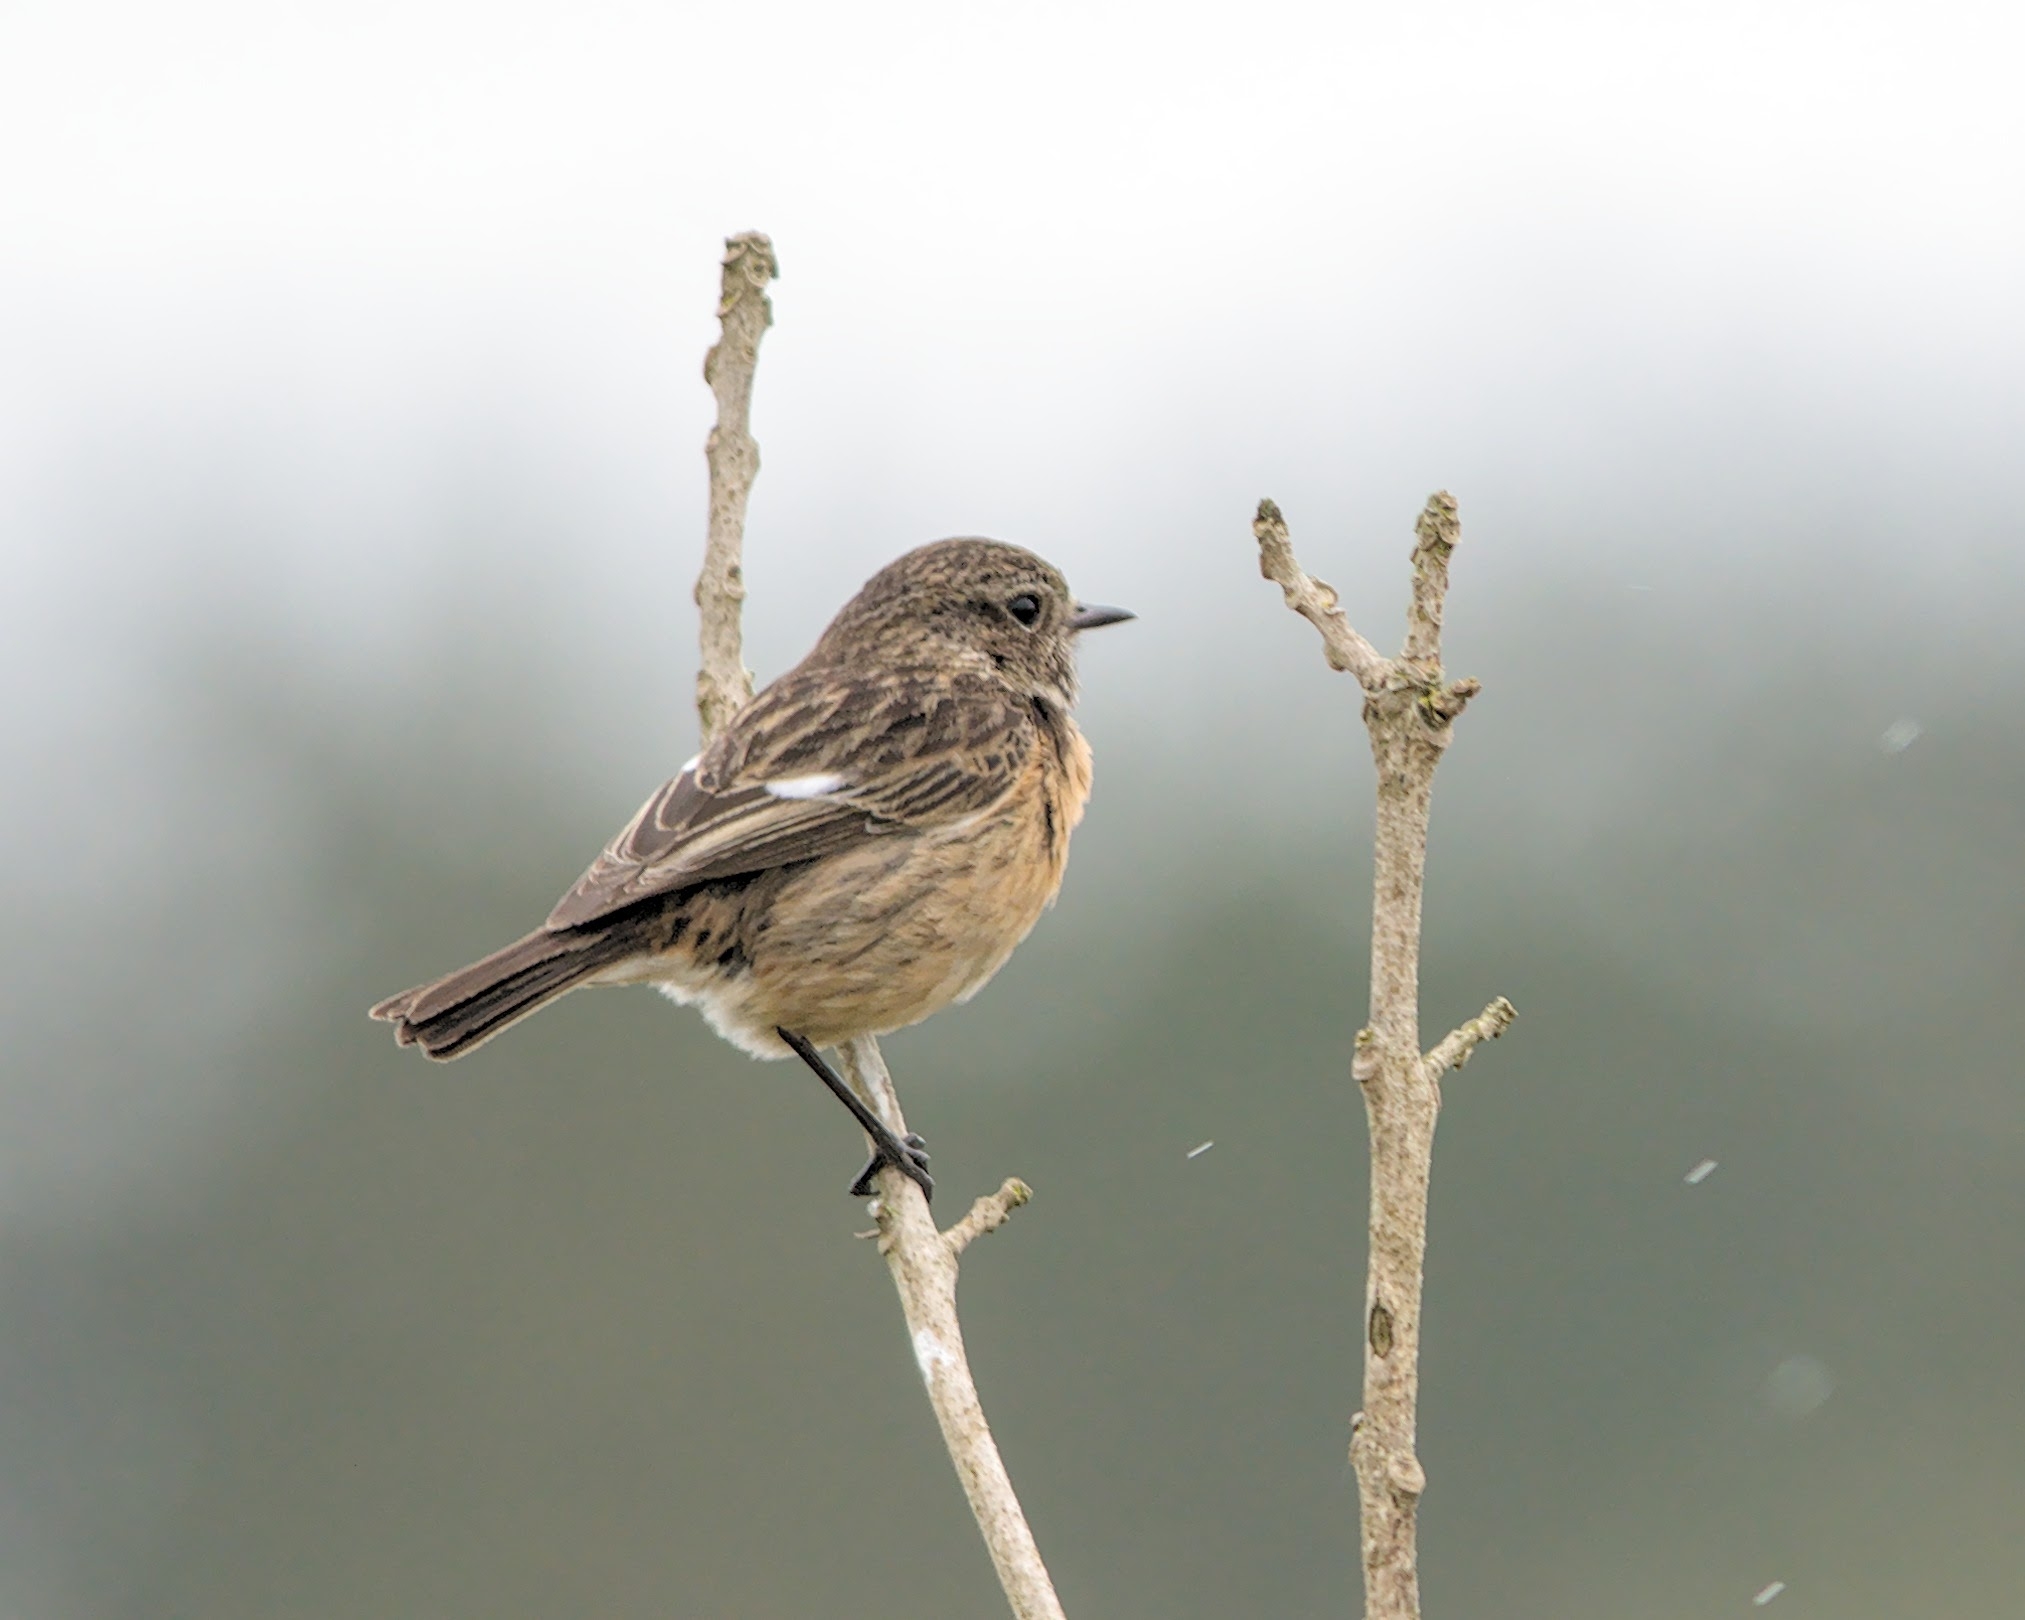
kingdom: Animalia
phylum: Chordata
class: Aves
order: Passeriformes
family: Muscicapidae
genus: Saxicola
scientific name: Saxicola rubicola
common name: European stonechat
